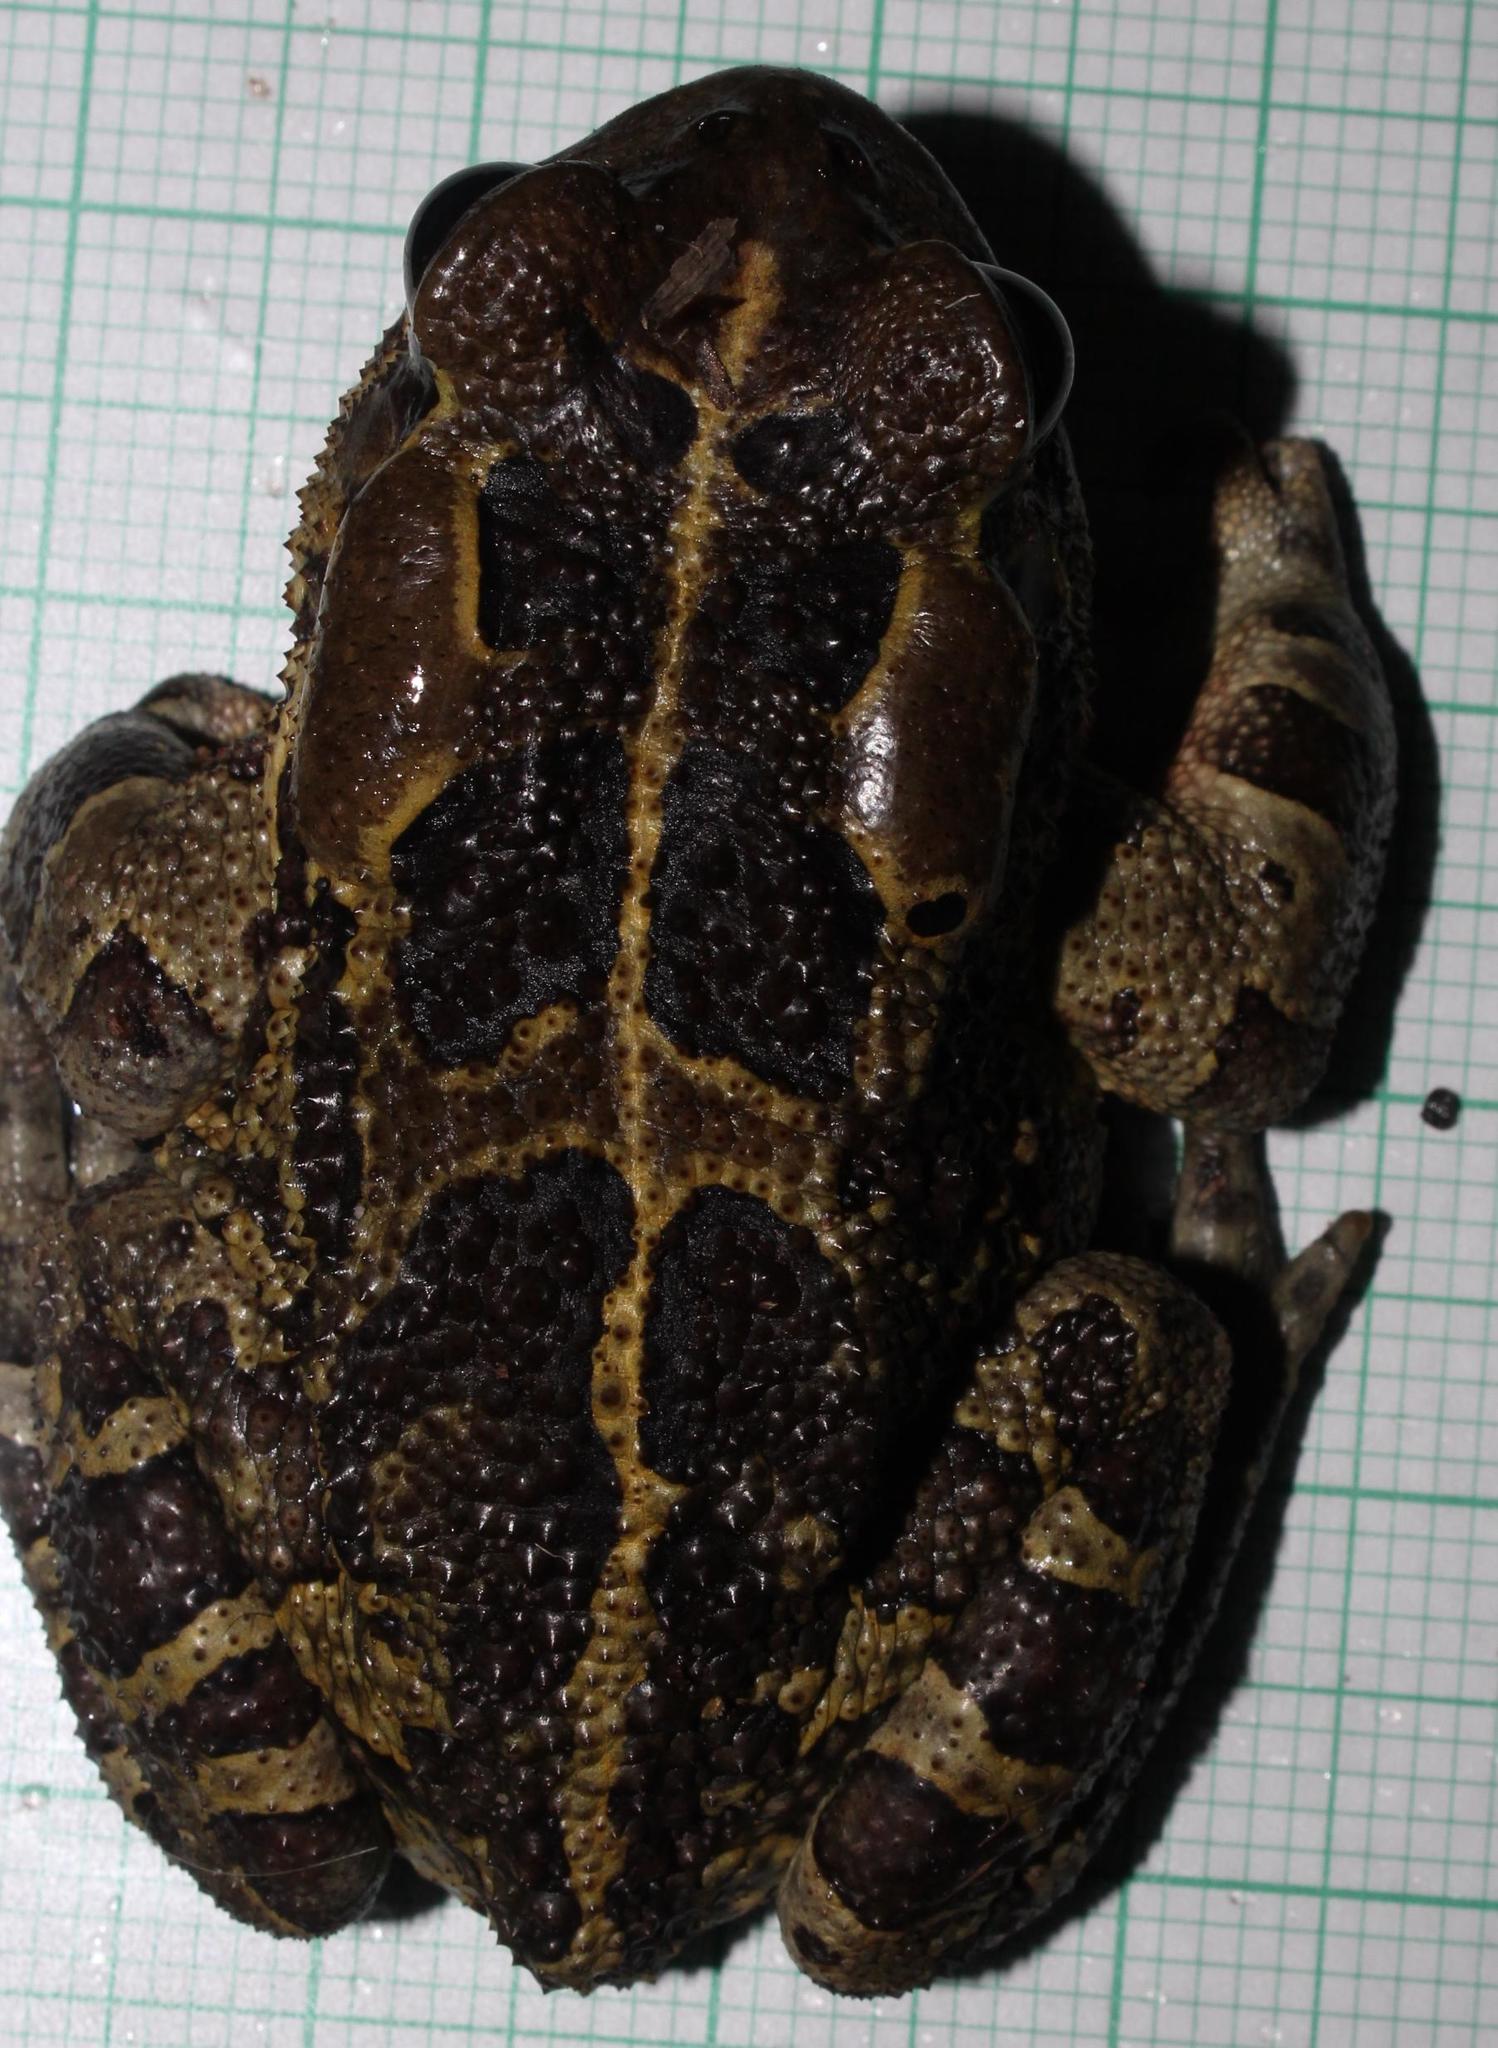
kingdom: Animalia
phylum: Chordata
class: Amphibia
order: Anura
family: Bufonidae
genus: Sclerophrys
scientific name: Sclerophrys pantherina
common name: Panther toad
